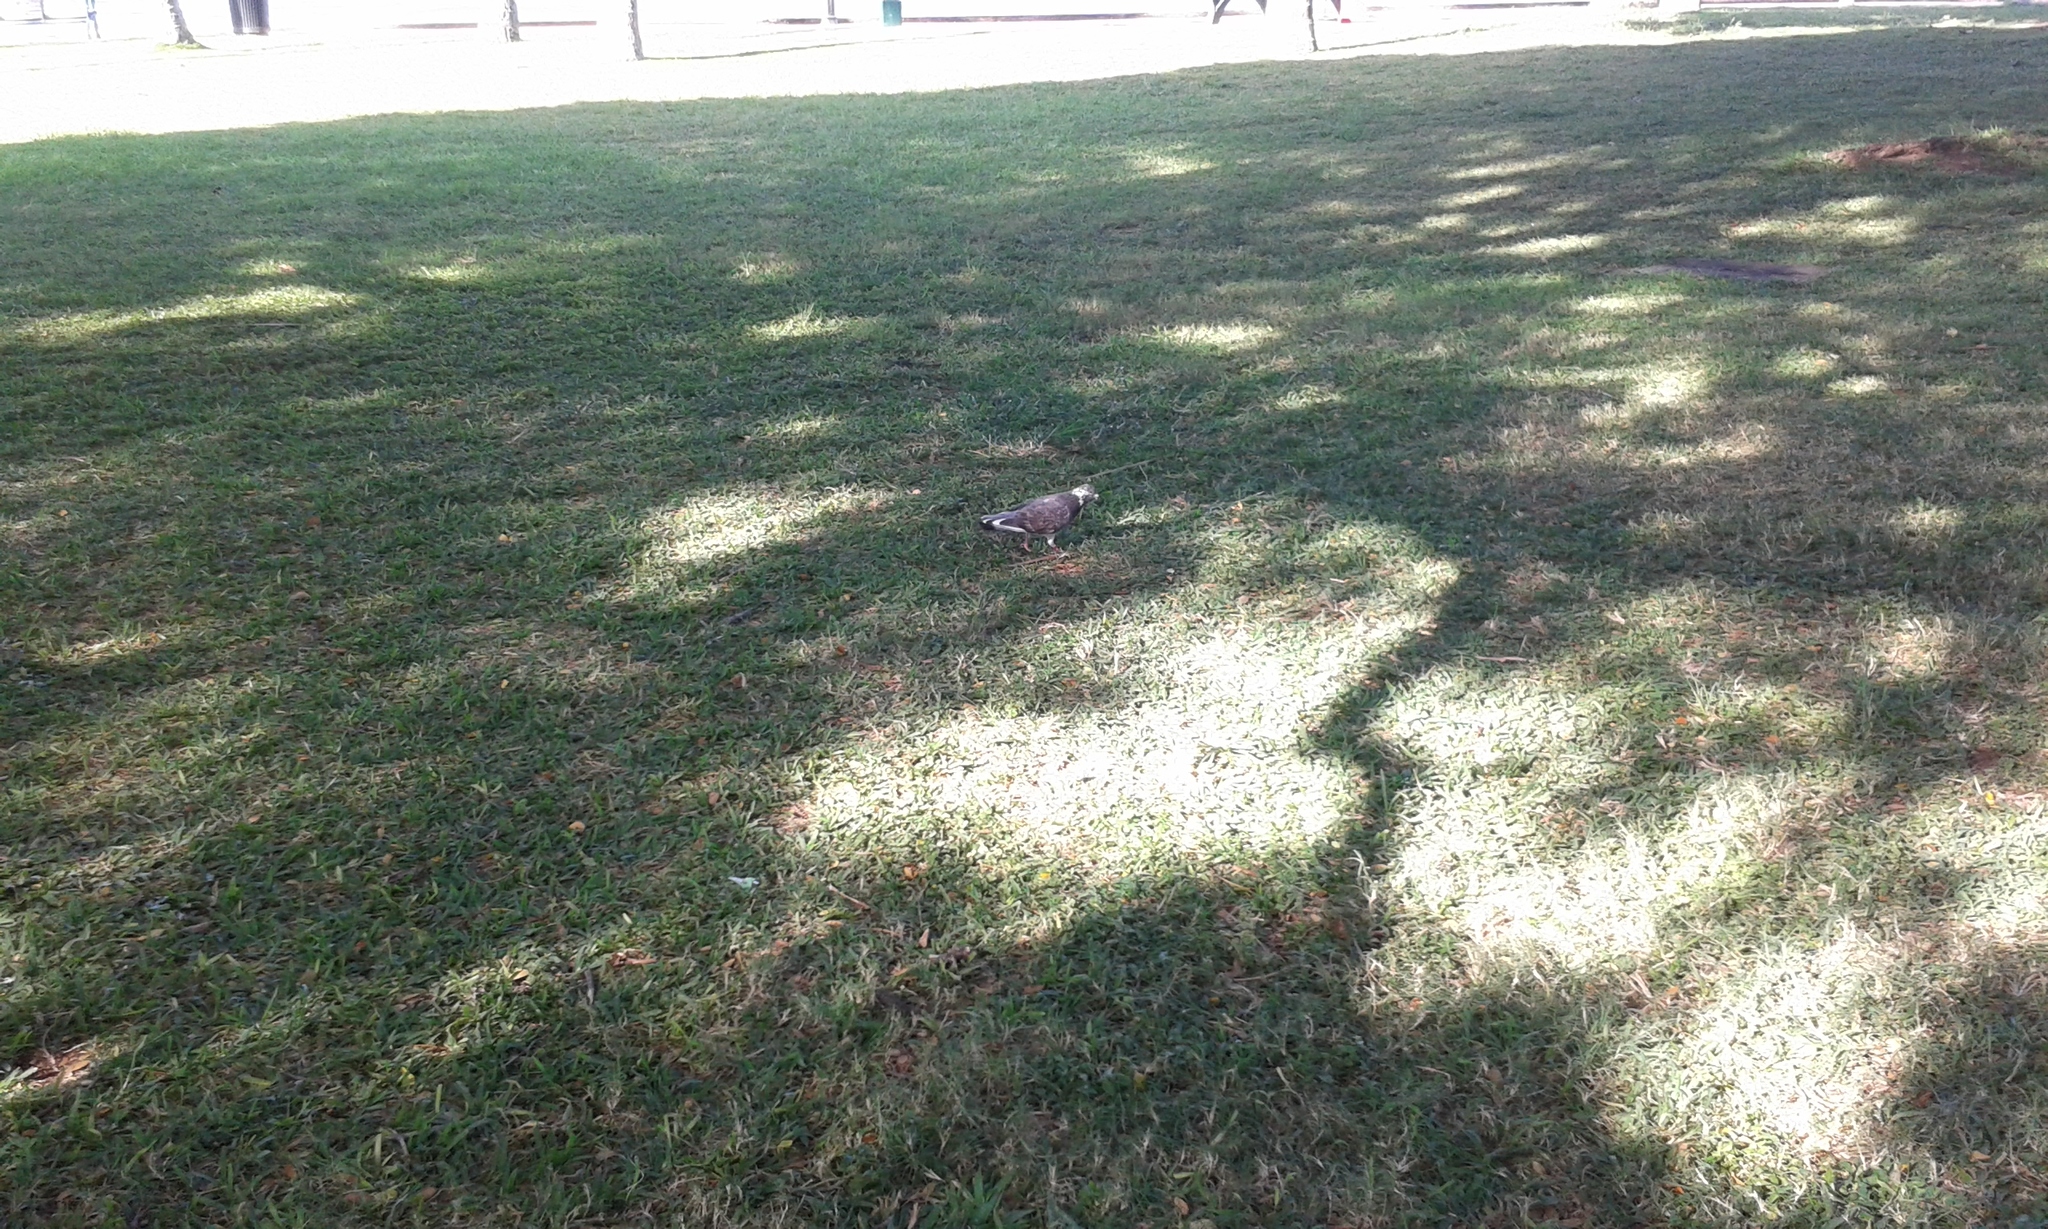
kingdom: Animalia
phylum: Chordata
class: Aves
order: Columbiformes
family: Columbidae
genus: Columba
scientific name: Columba livia
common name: Rock pigeon
